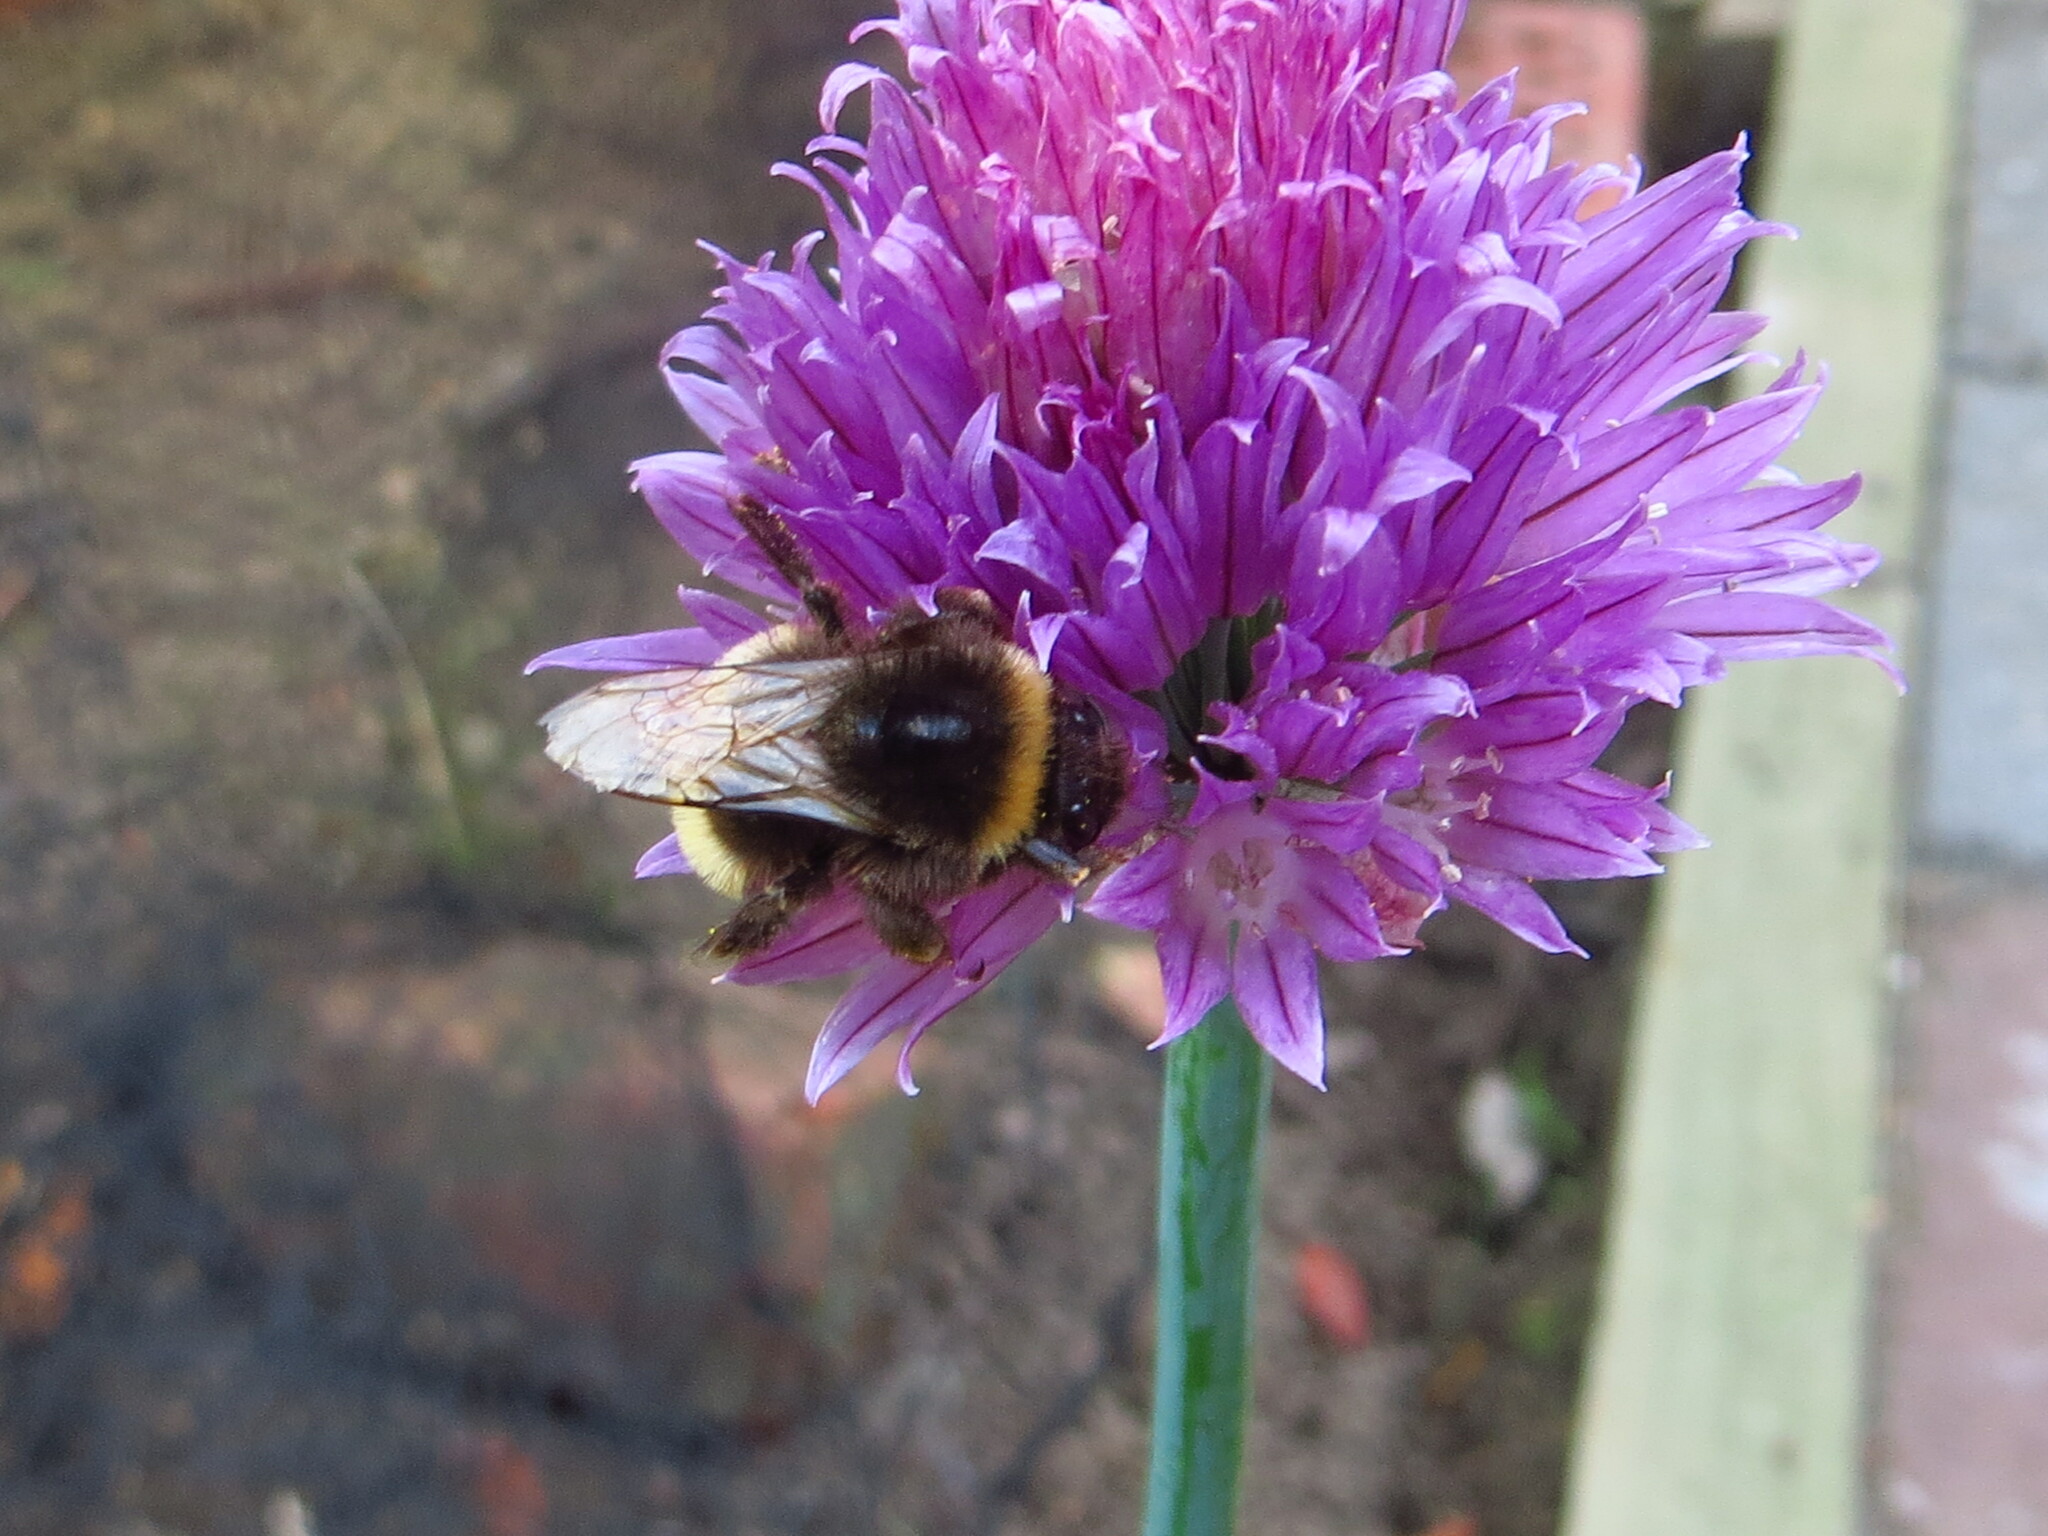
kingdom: Animalia
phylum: Arthropoda
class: Insecta
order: Hymenoptera
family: Apidae
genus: Bombus
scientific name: Bombus terrestris
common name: Buff-tailed bumblebee
